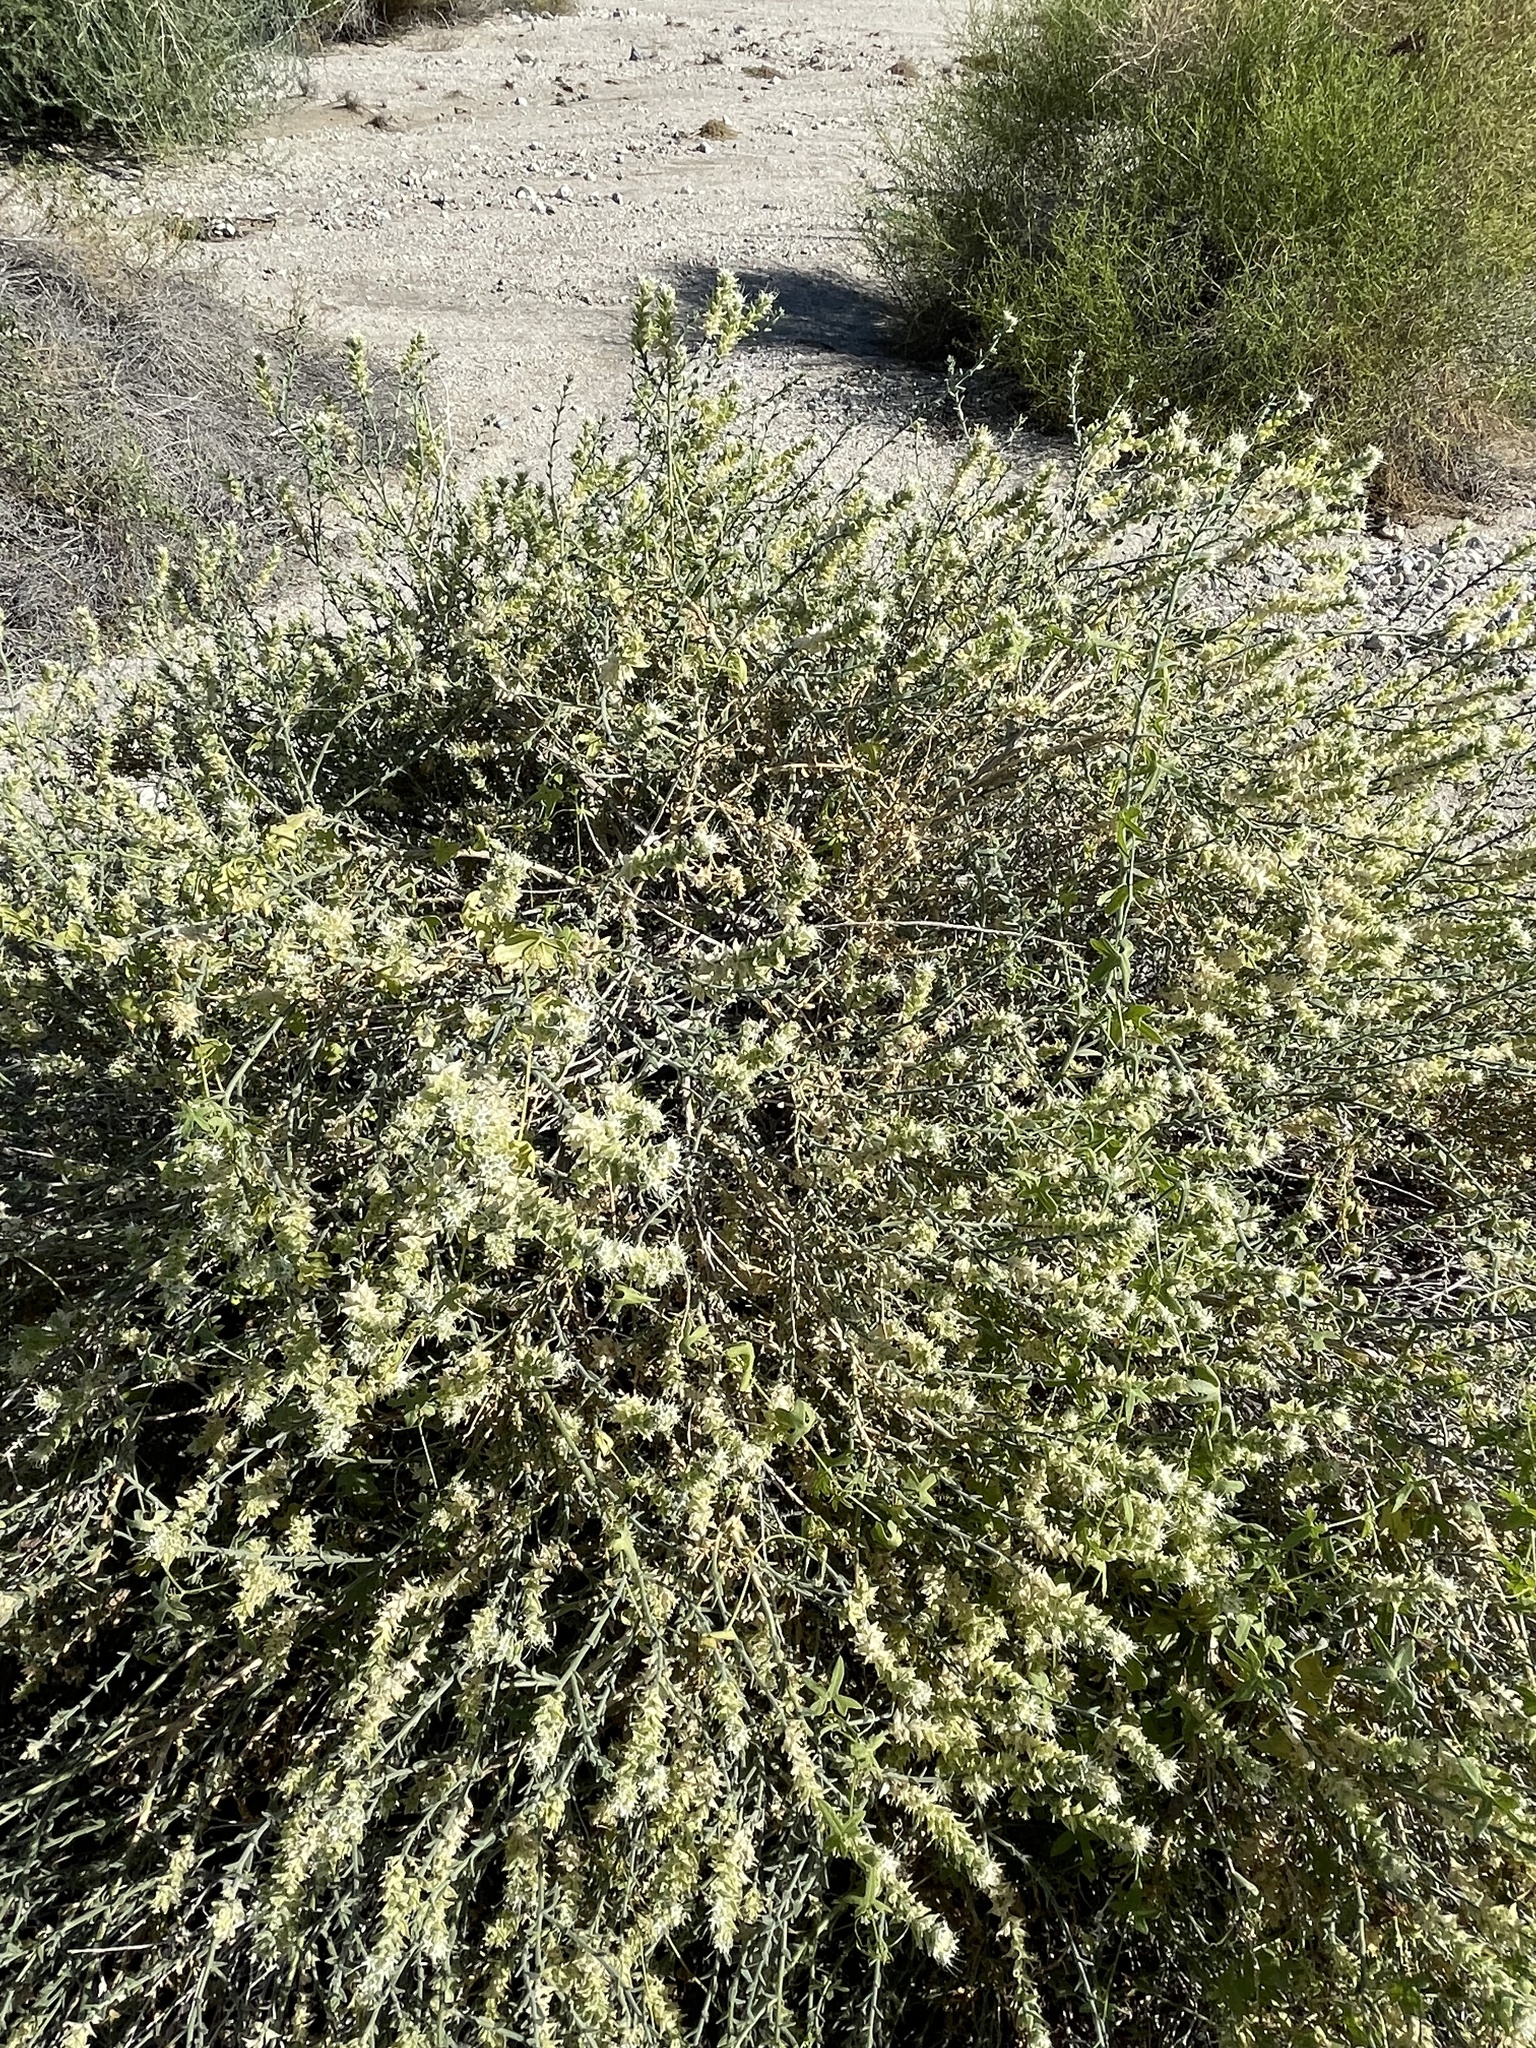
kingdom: Plantae
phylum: Tracheophyta
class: Magnoliopsida
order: Cornales
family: Loasaceae
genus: Petalonyx
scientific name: Petalonyx thurberi
